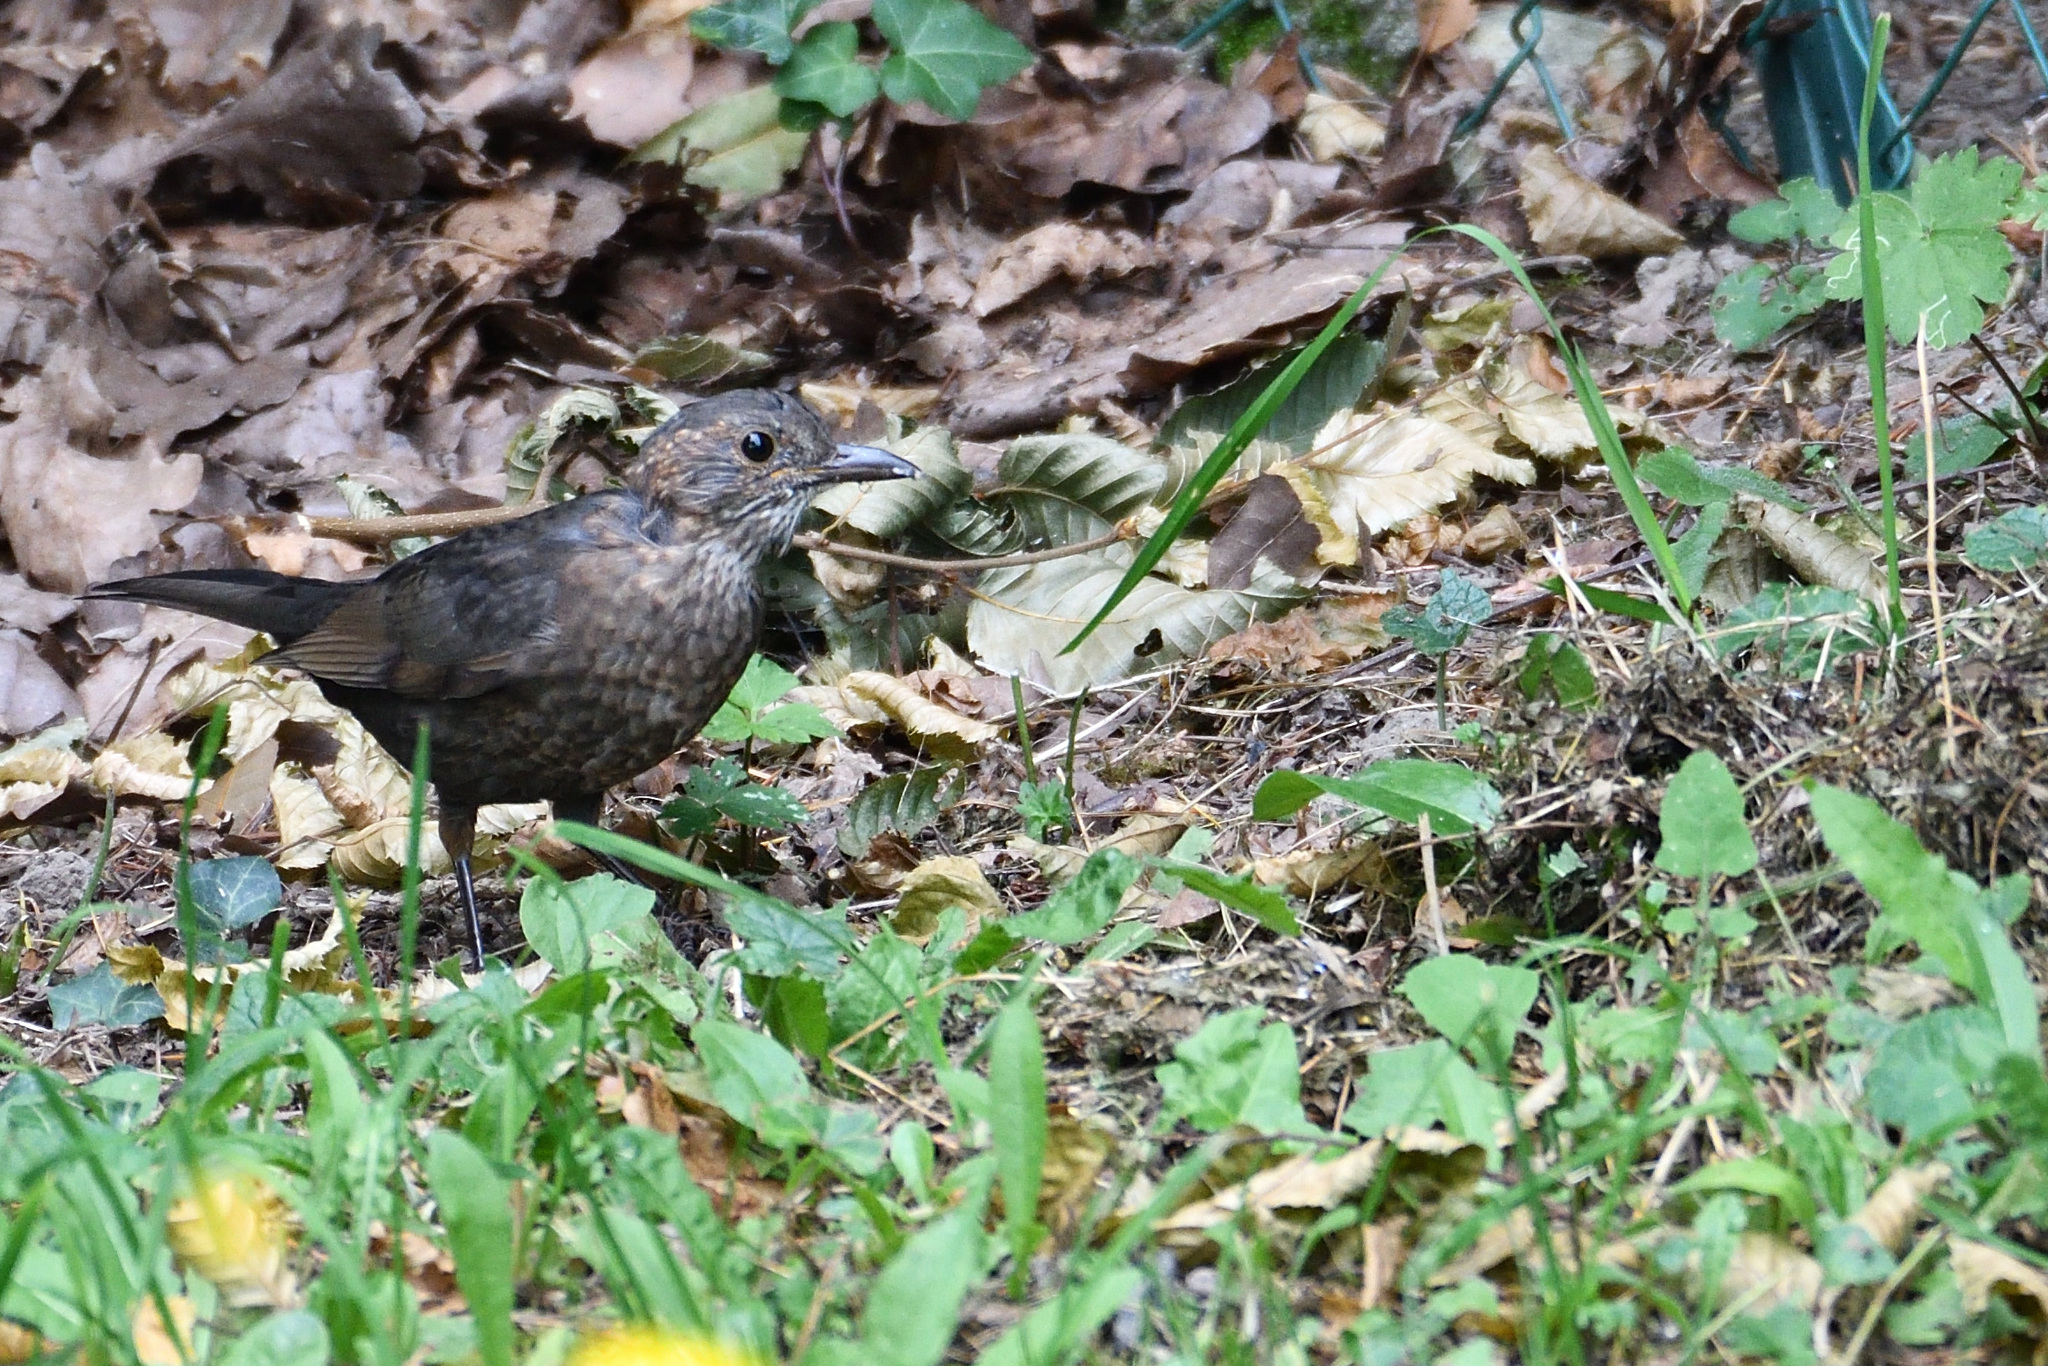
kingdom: Animalia
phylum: Chordata
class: Aves
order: Passeriformes
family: Turdidae
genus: Turdus
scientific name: Turdus merula
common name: Common blackbird
